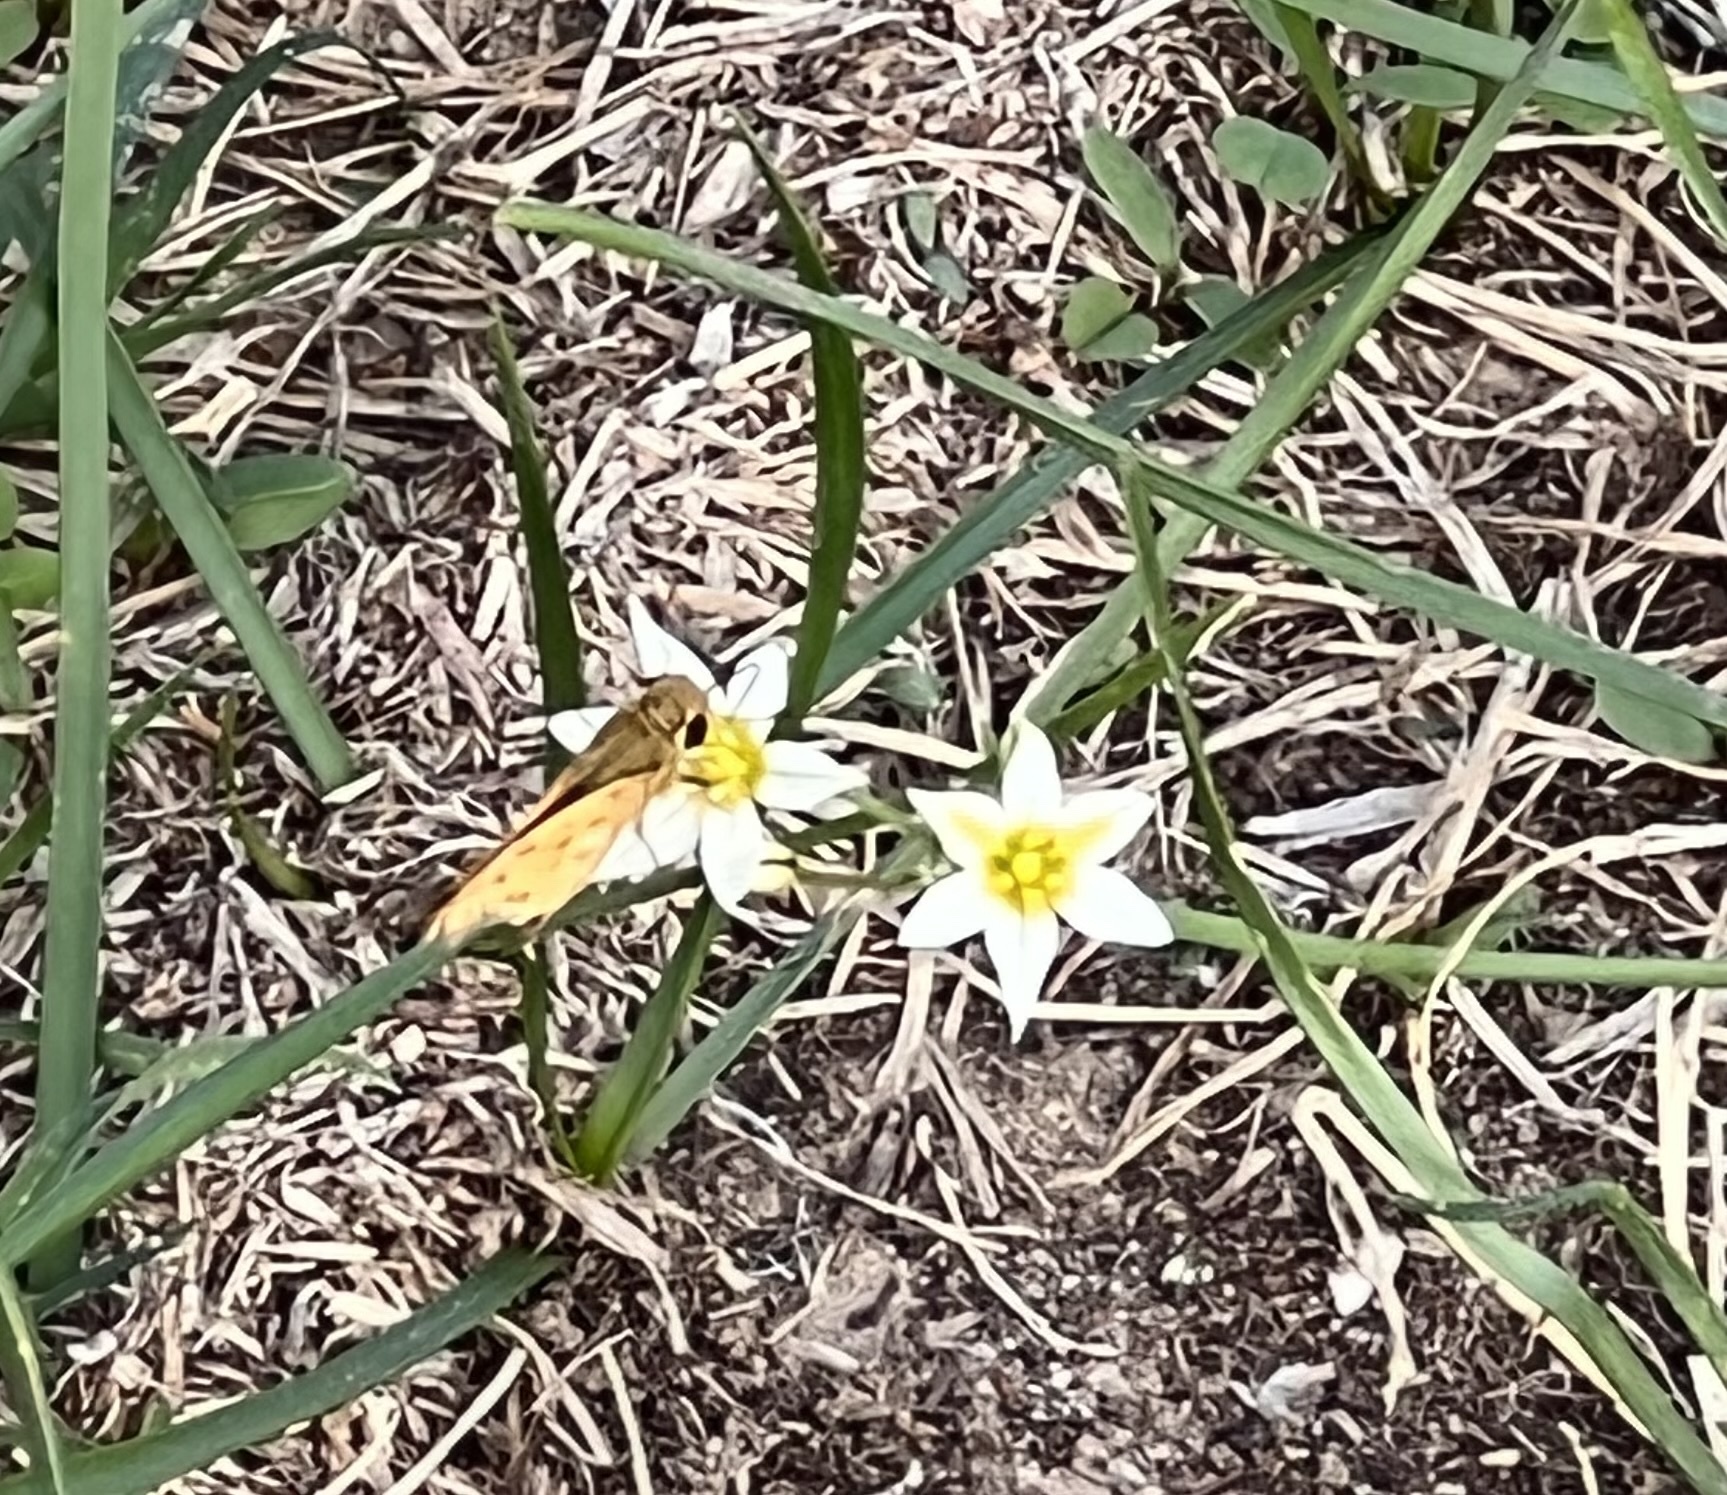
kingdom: Animalia
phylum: Arthropoda
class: Insecta
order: Lepidoptera
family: Hesperiidae
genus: Hylephila
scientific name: Hylephila phyleus
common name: Fiery skipper
